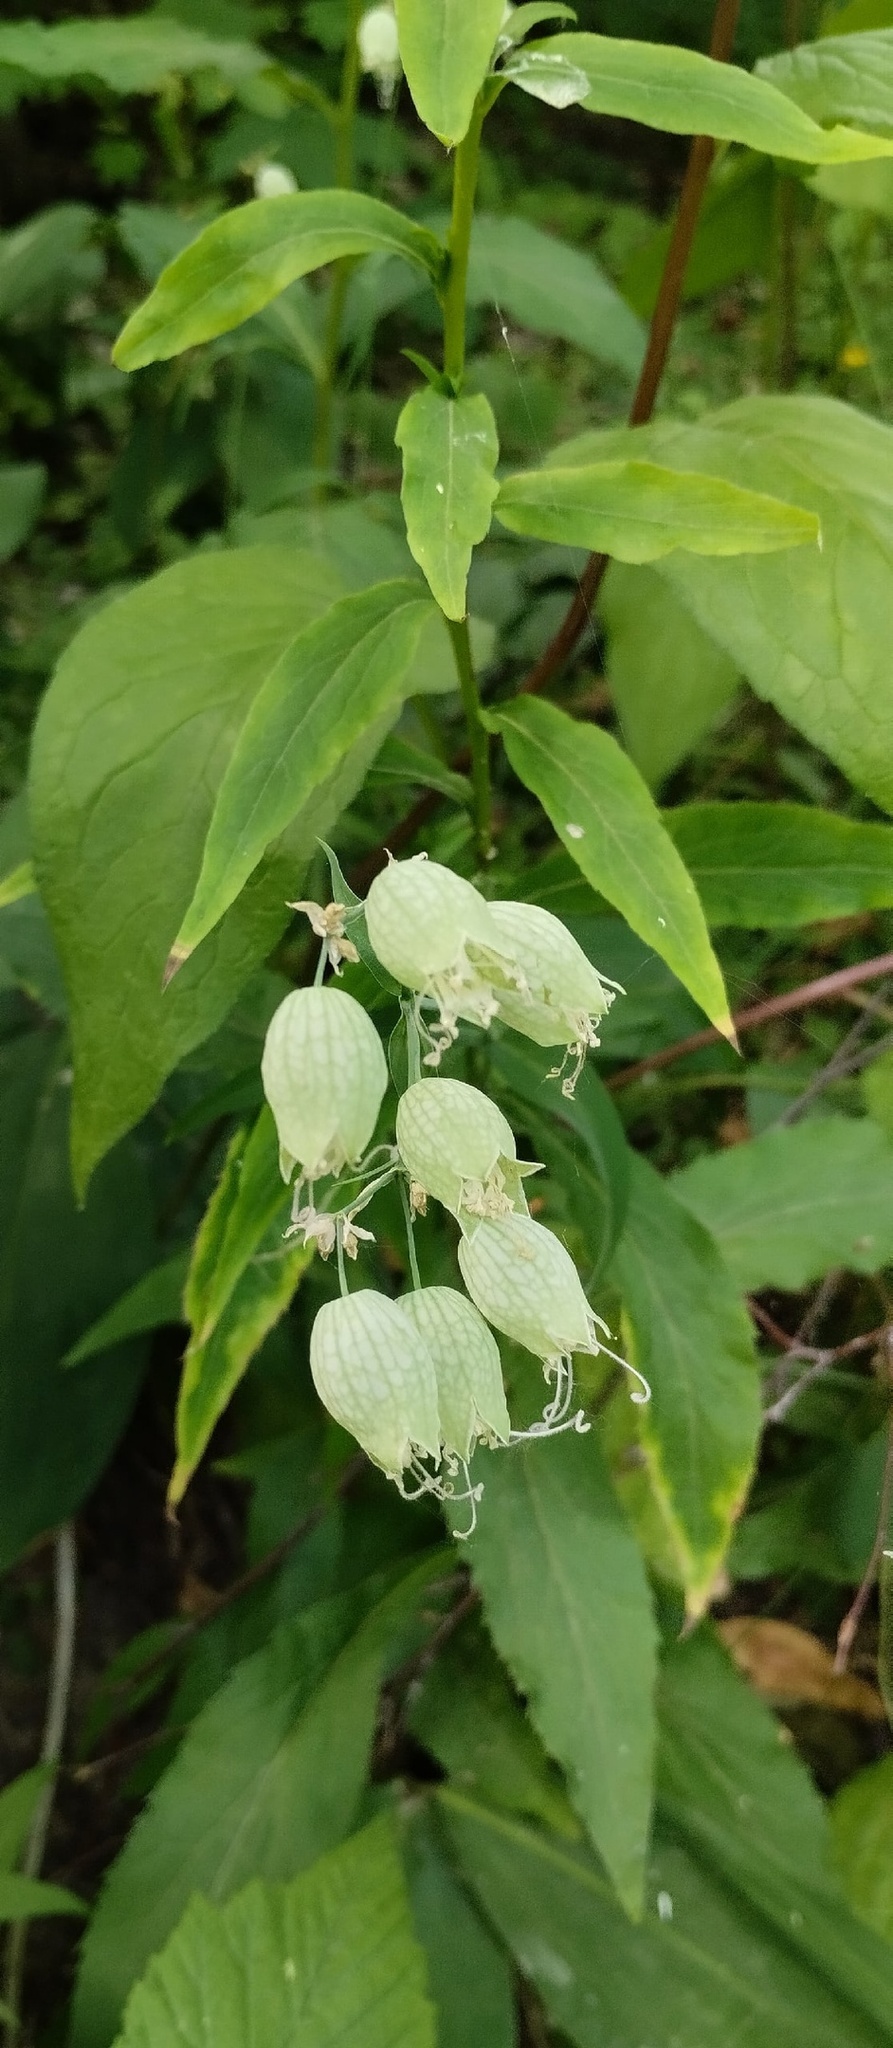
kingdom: Plantae
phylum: Tracheophyta
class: Magnoliopsida
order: Caryophyllales
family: Caryophyllaceae
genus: Silene
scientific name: Silene vulgaris
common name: Bladder campion
